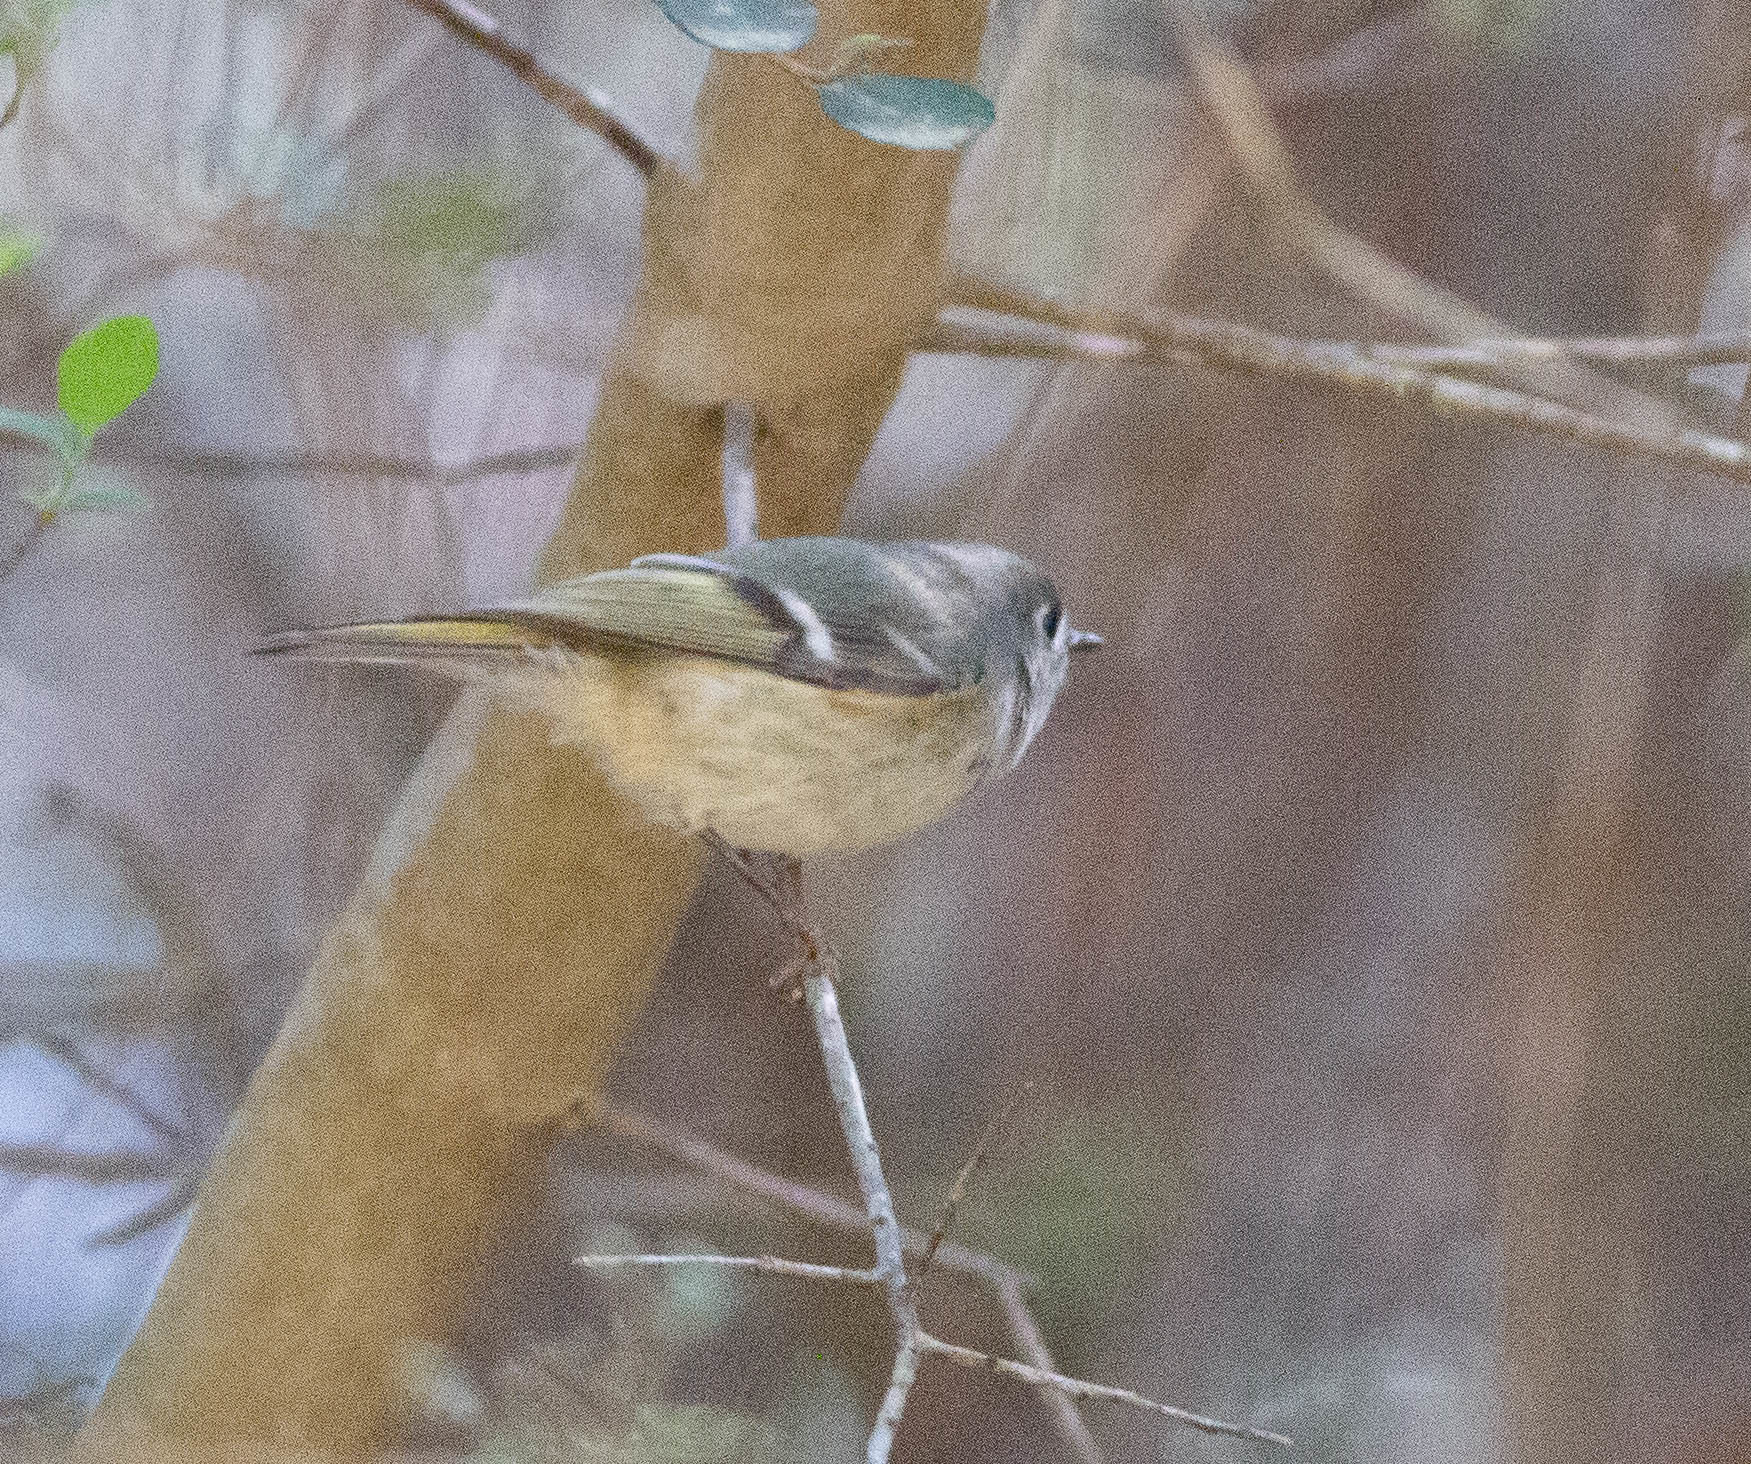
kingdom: Animalia
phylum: Chordata
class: Aves
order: Passeriformes
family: Regulidae
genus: Regulus
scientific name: Regulus calendula
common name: Ruby-crowned kinglet
